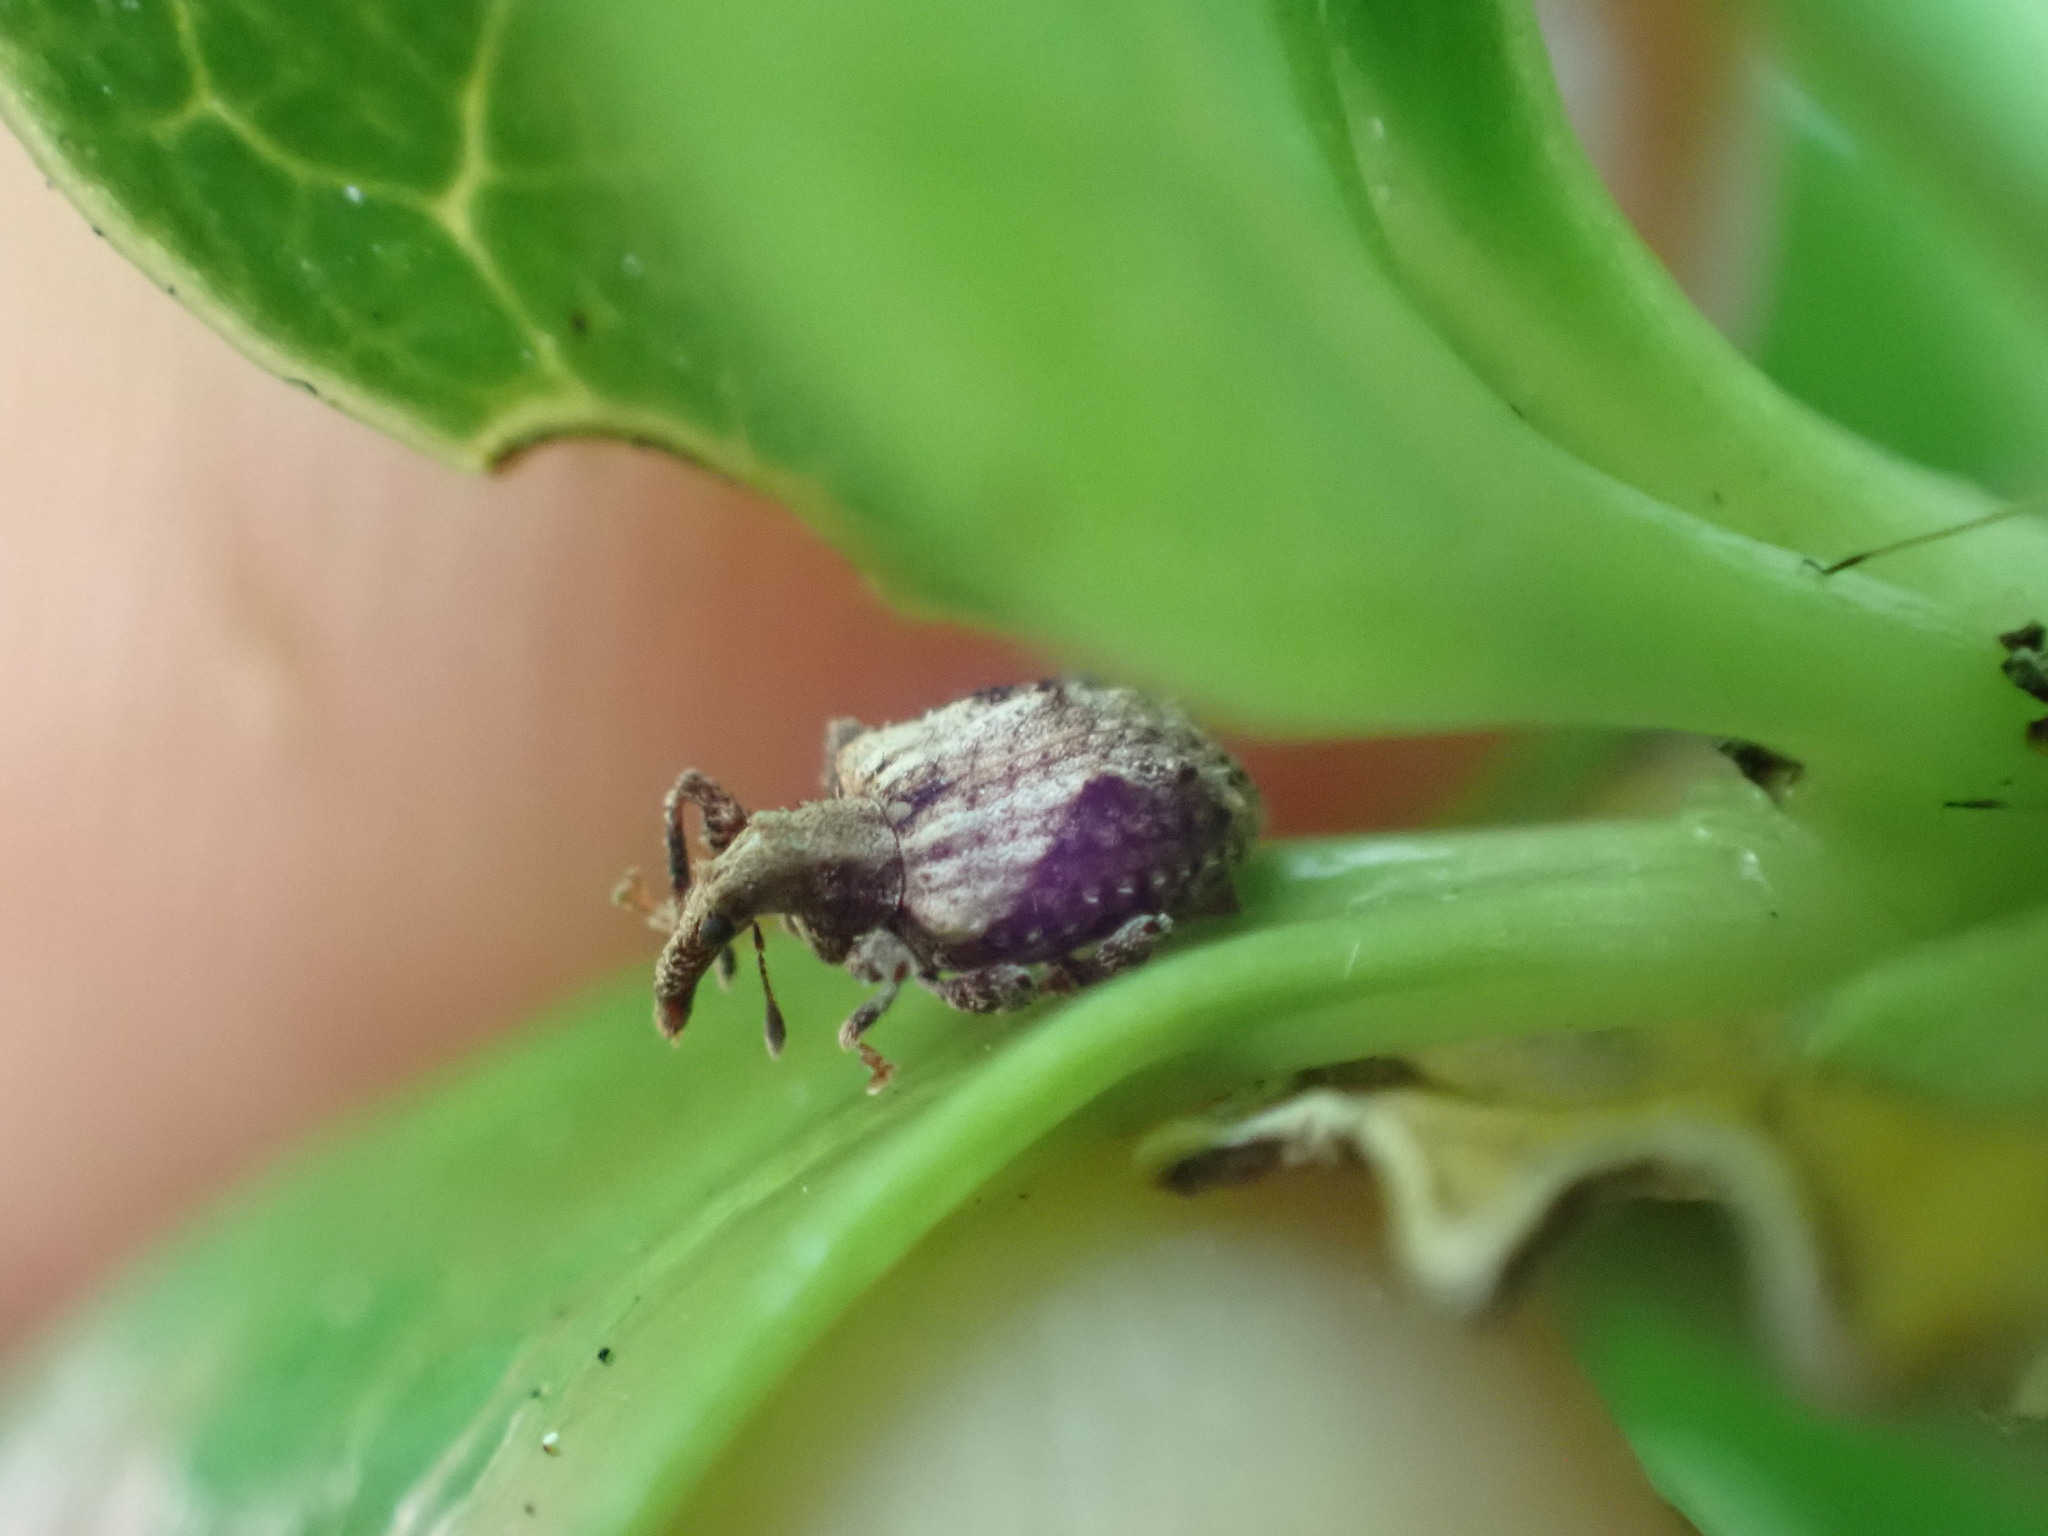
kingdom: Animalia
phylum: Arthropoda
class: Insecta
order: Coleoptera
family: Curculionidae
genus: Tysius
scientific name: Tysius bicornis
